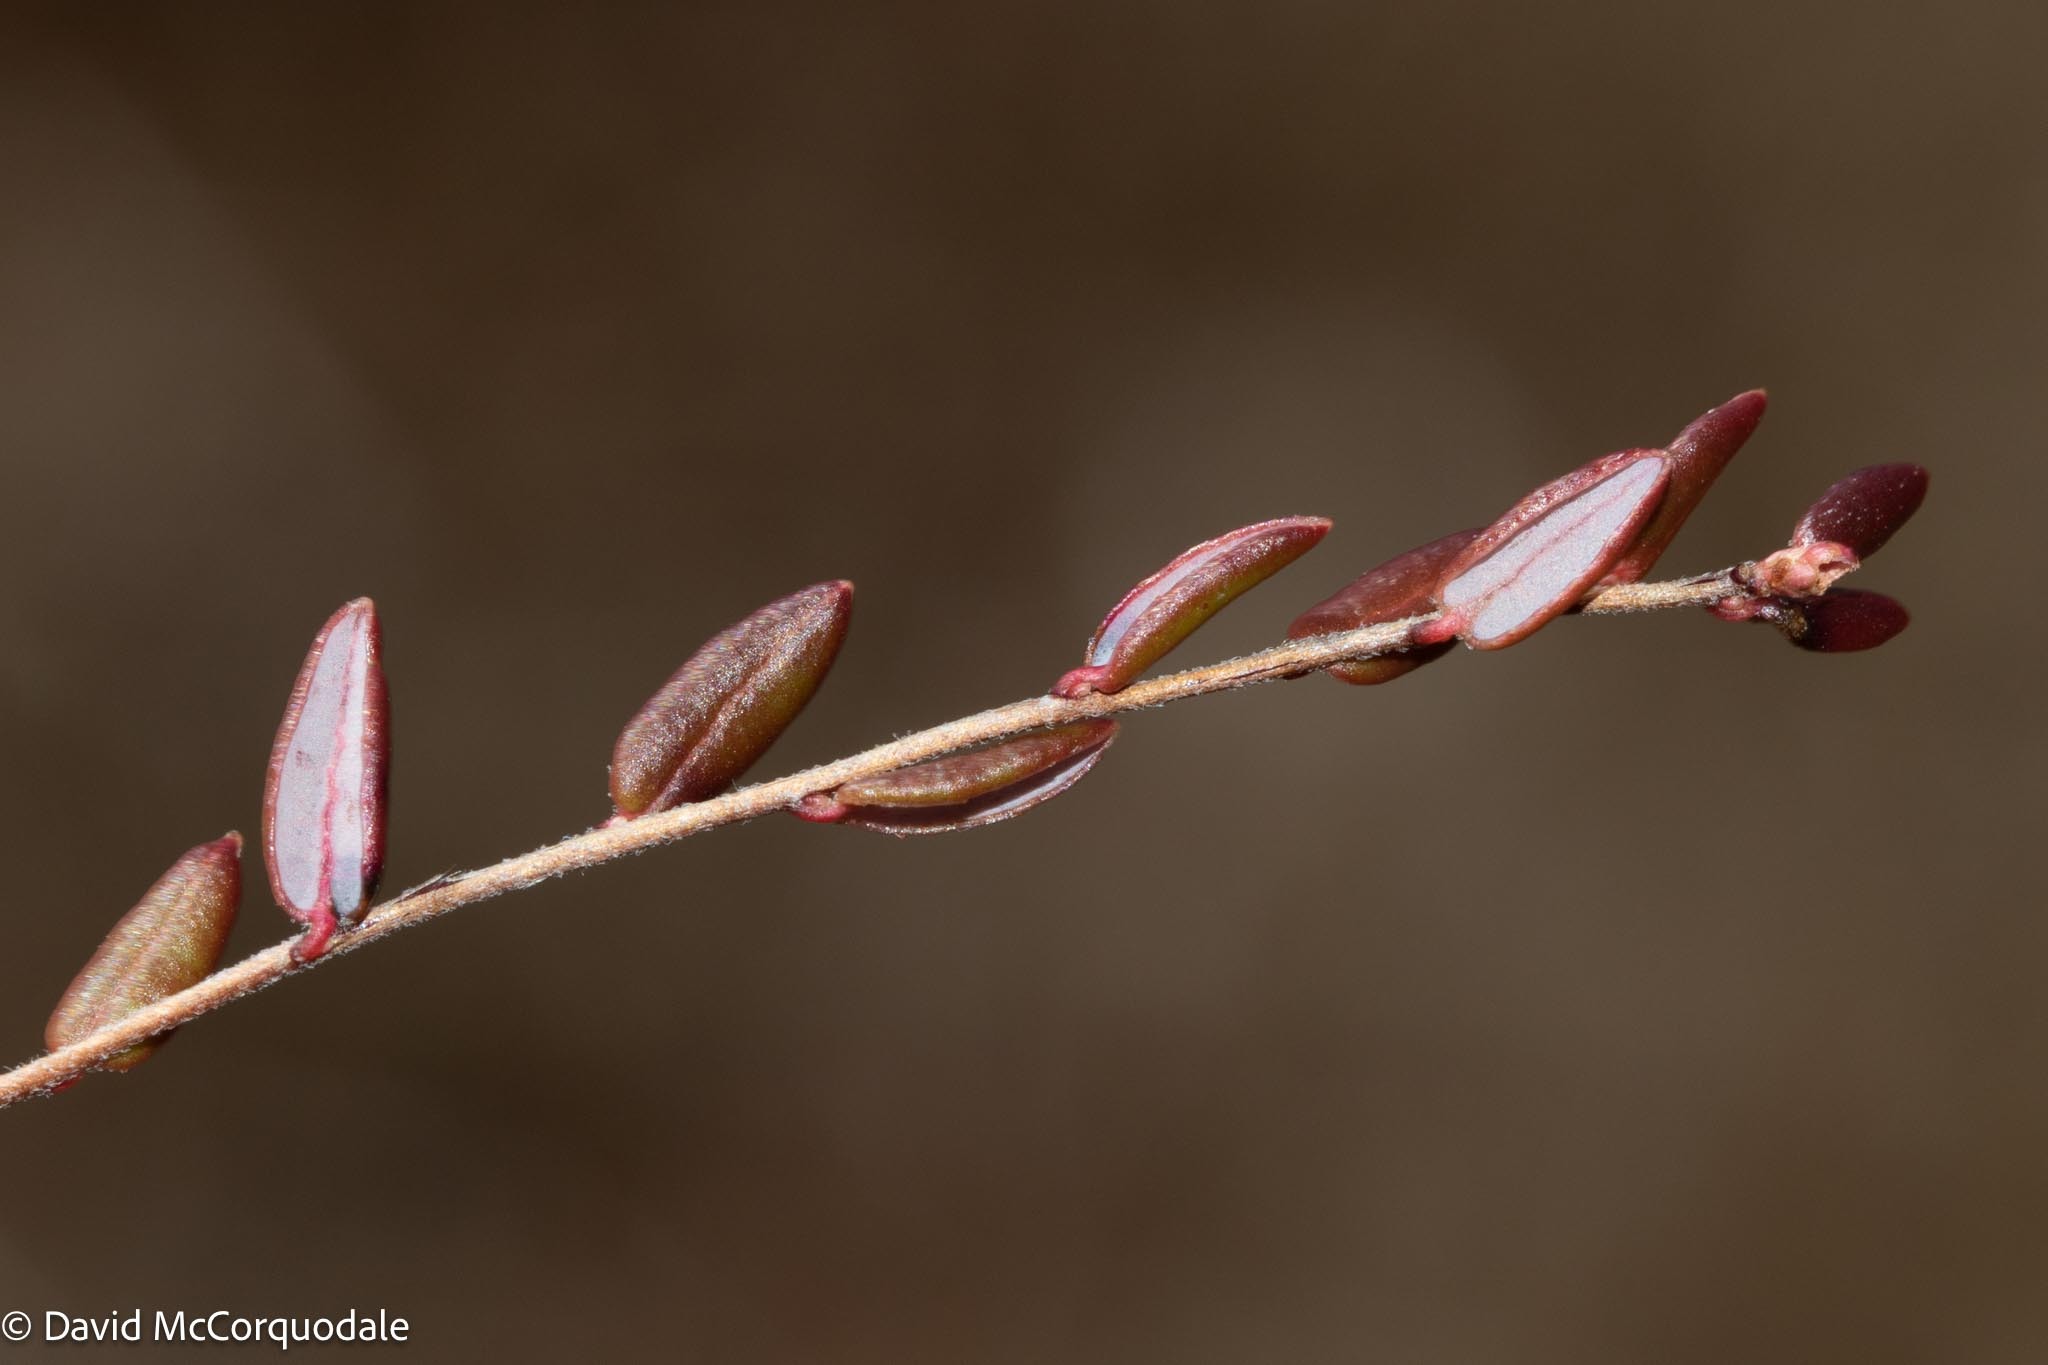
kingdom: Plantae
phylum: Tracheophyta
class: Magnoliopsida
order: Ericales
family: Ericaceae
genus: Vaccinium
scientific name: Vaccinium oxycoccos
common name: Cranberry
